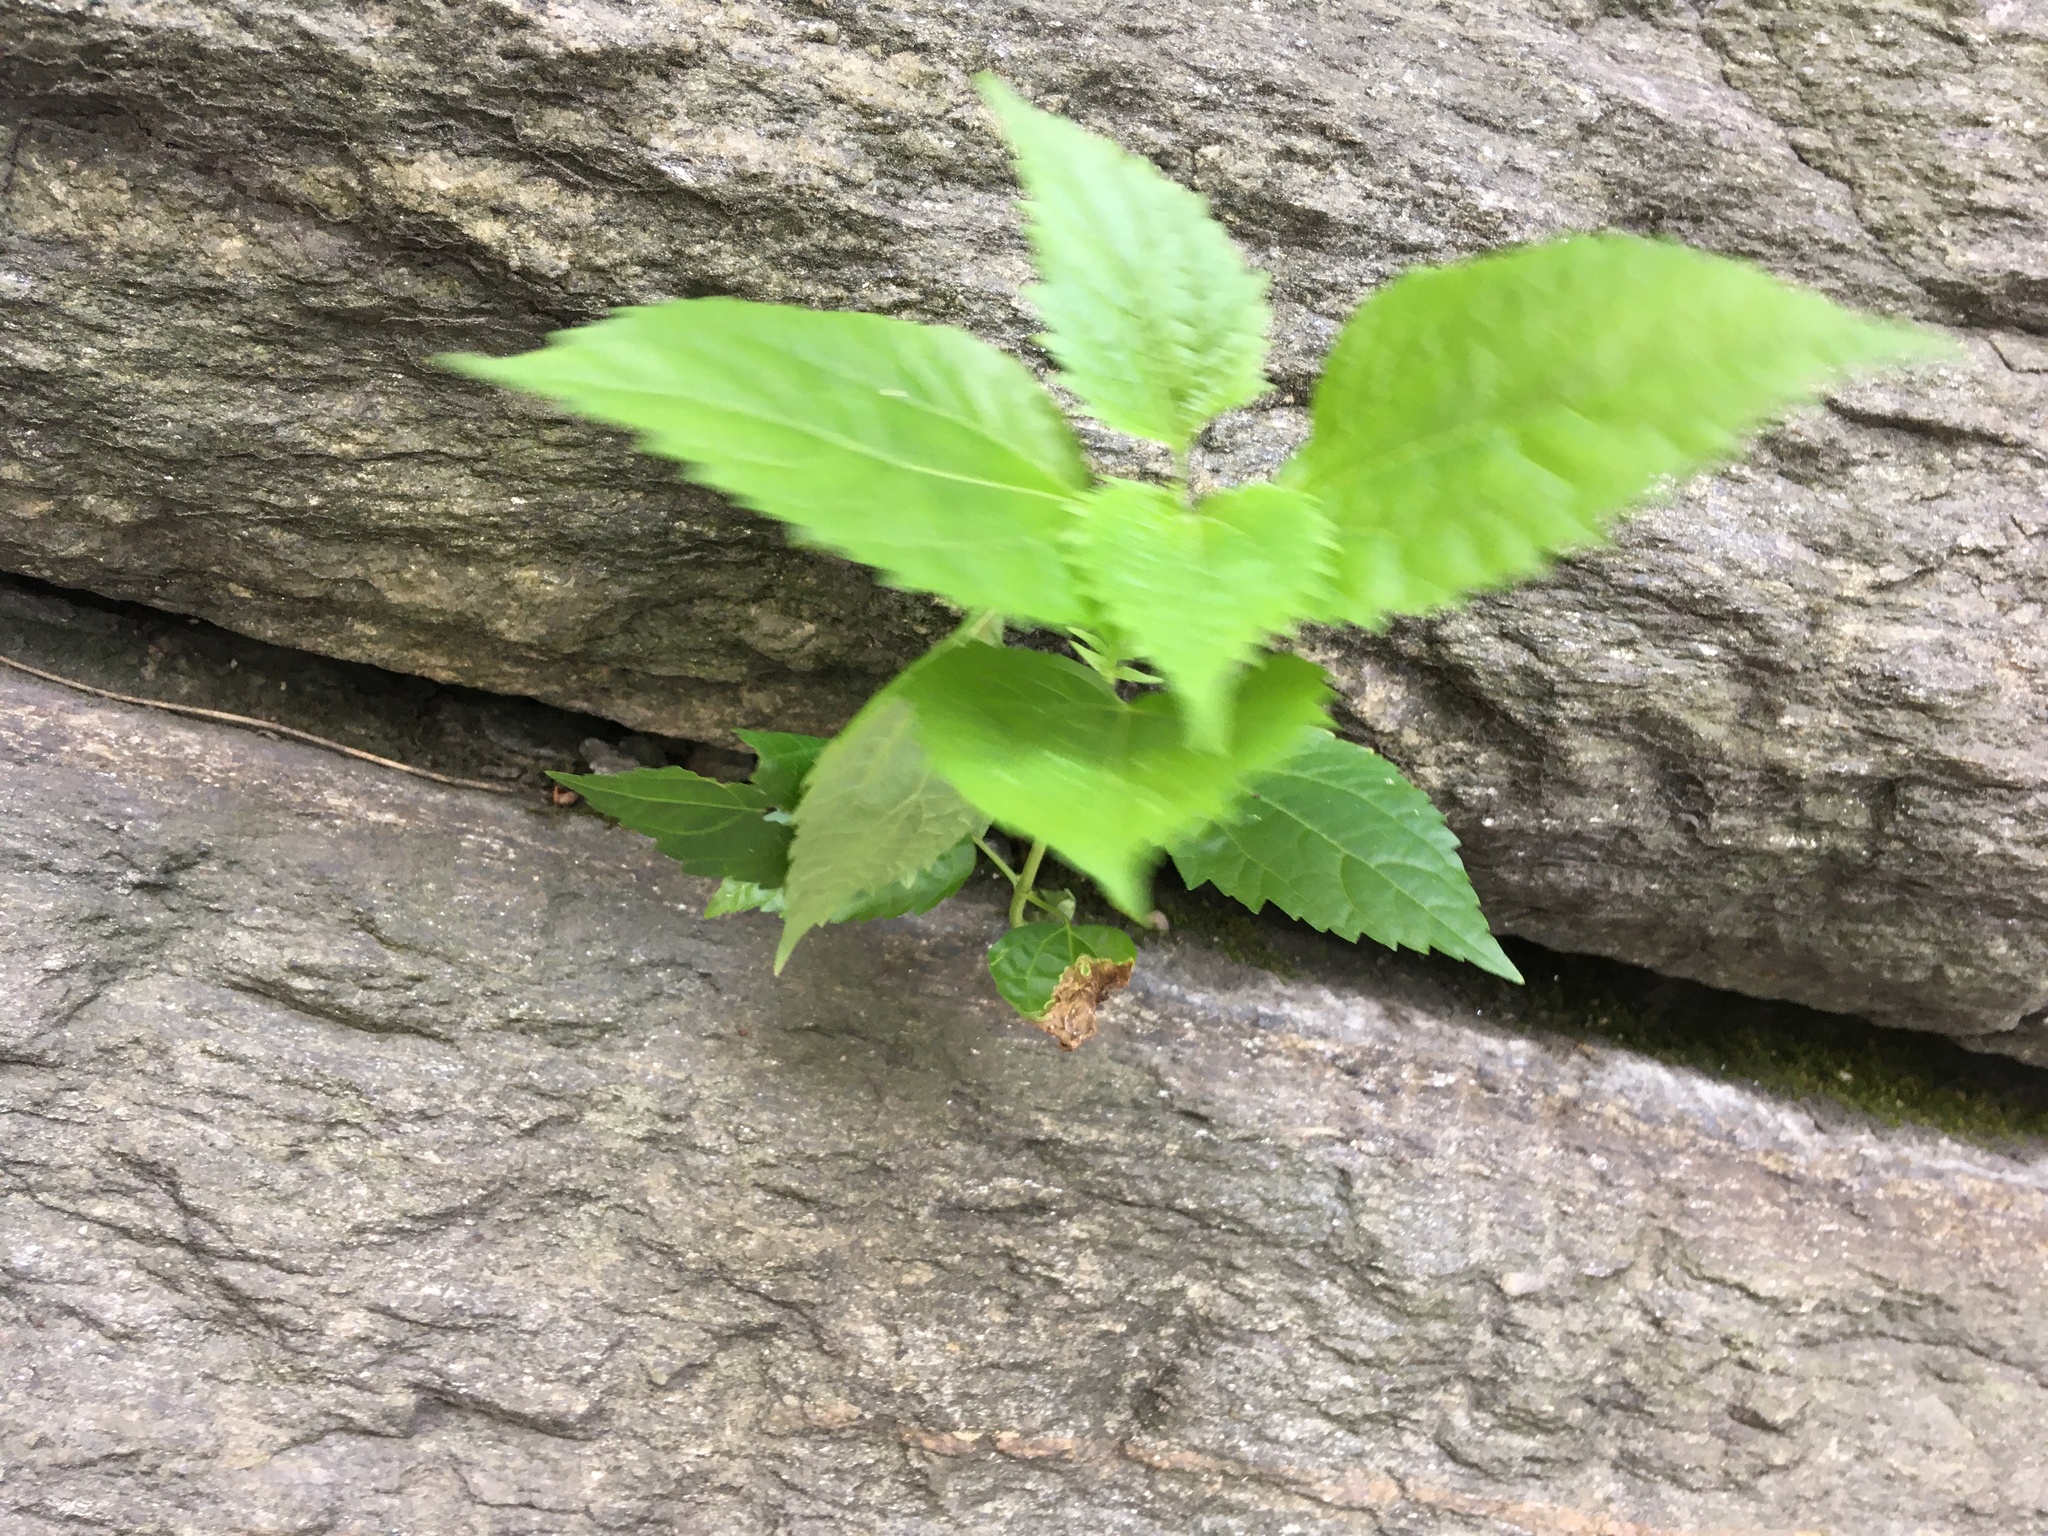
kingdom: Plantae
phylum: Tracheophyta
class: Magnoliopsida
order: Asterales
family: Asteraceae
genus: Ageratina
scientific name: Ageratina altissima
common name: White snakeroot
